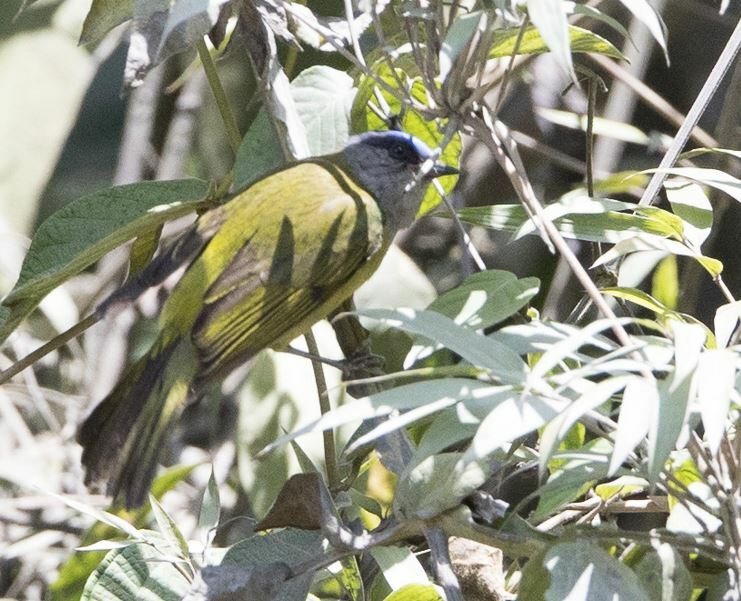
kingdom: Animalia
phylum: Chordata
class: Aves
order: Passeriformes
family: Thraupidae
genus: Conirostrum
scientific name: Conirostrum albifrons
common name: Capped conebill
